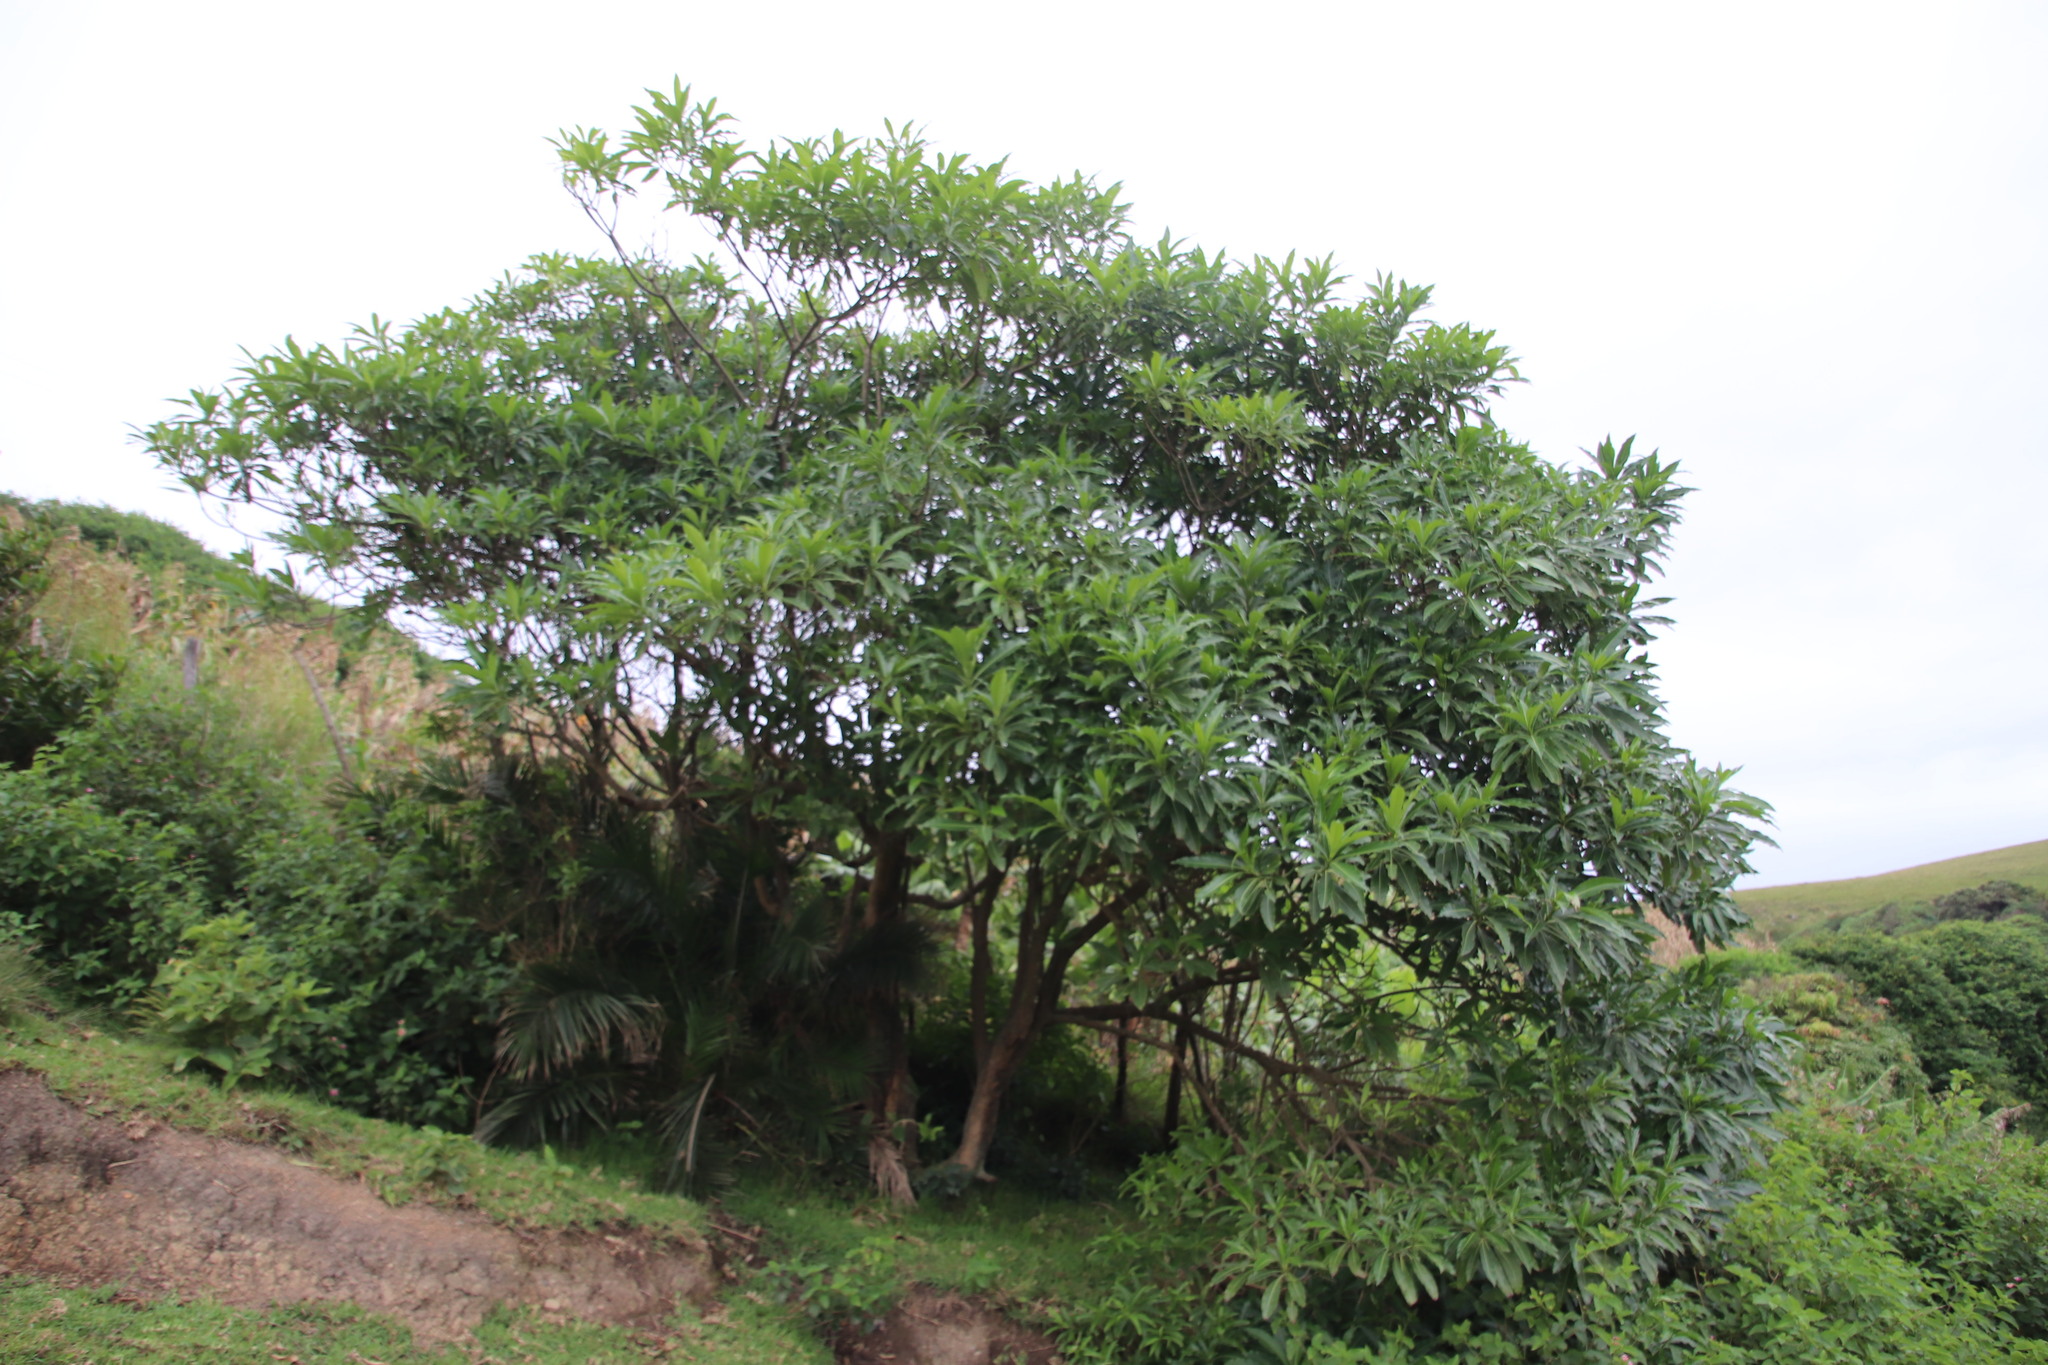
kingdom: Plantae
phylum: Tracheophyta
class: Magnoliopsida
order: Gentianales
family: Apocynaceae
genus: Rauvolfia
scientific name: Rauvolfia caffra
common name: Quininetree
